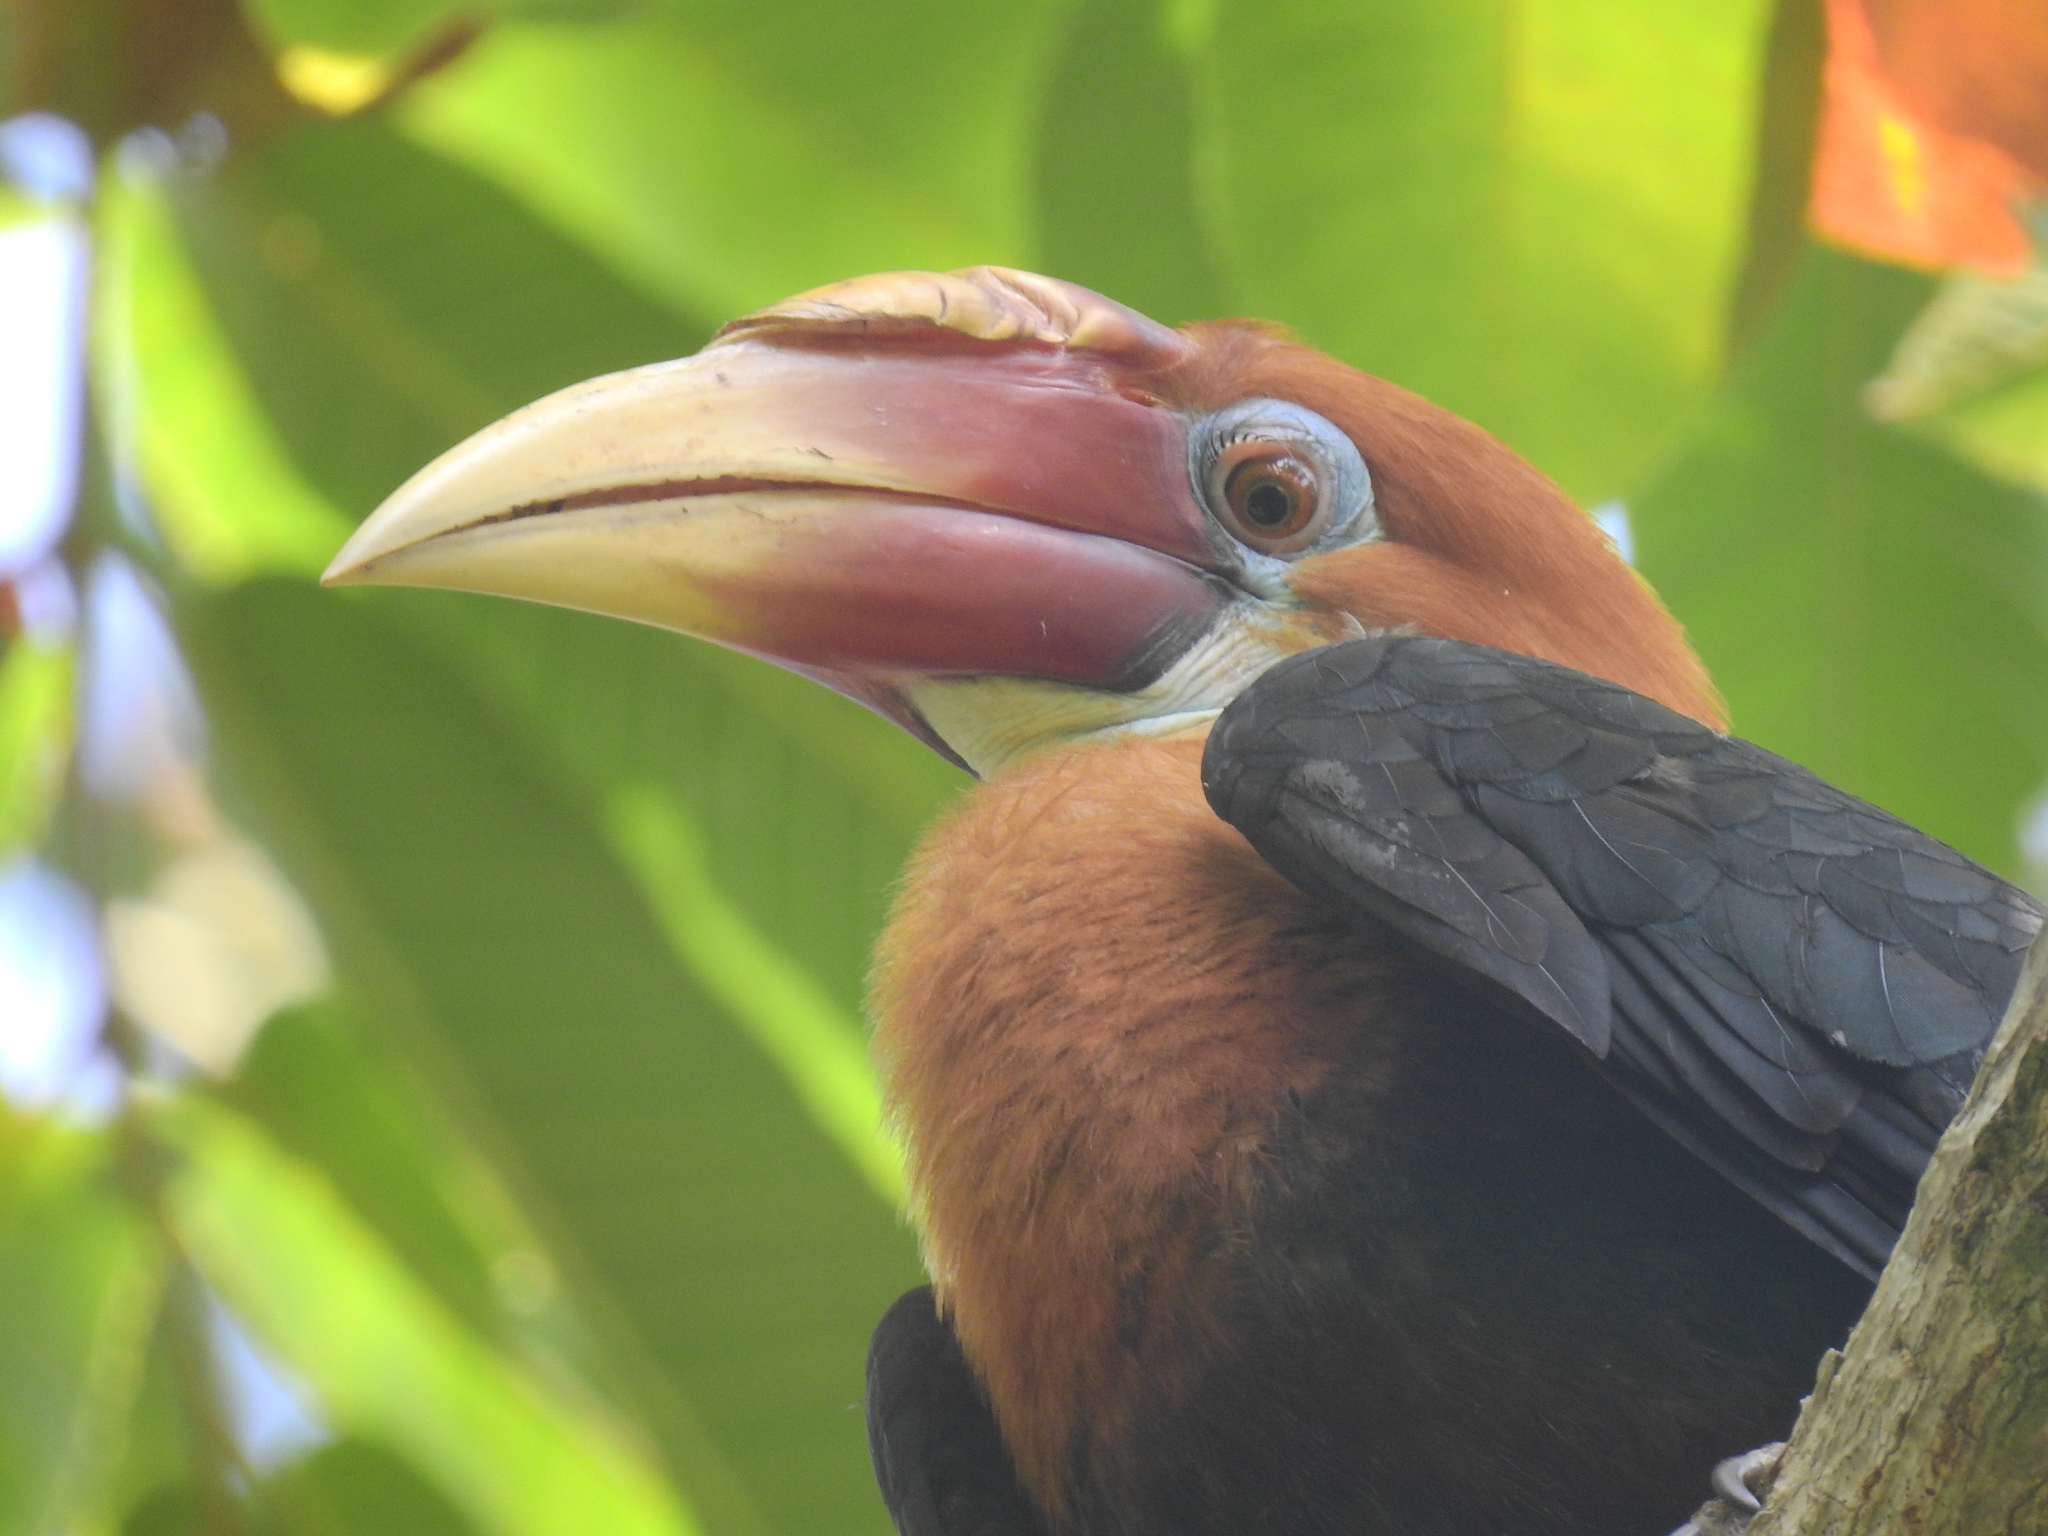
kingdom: Animalia
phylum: Chordata
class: Aves
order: Bucerotiformes
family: Bucerotidae
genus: Rhyticeros
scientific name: Rhyticeros narcondami
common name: Narcondam hornbill
